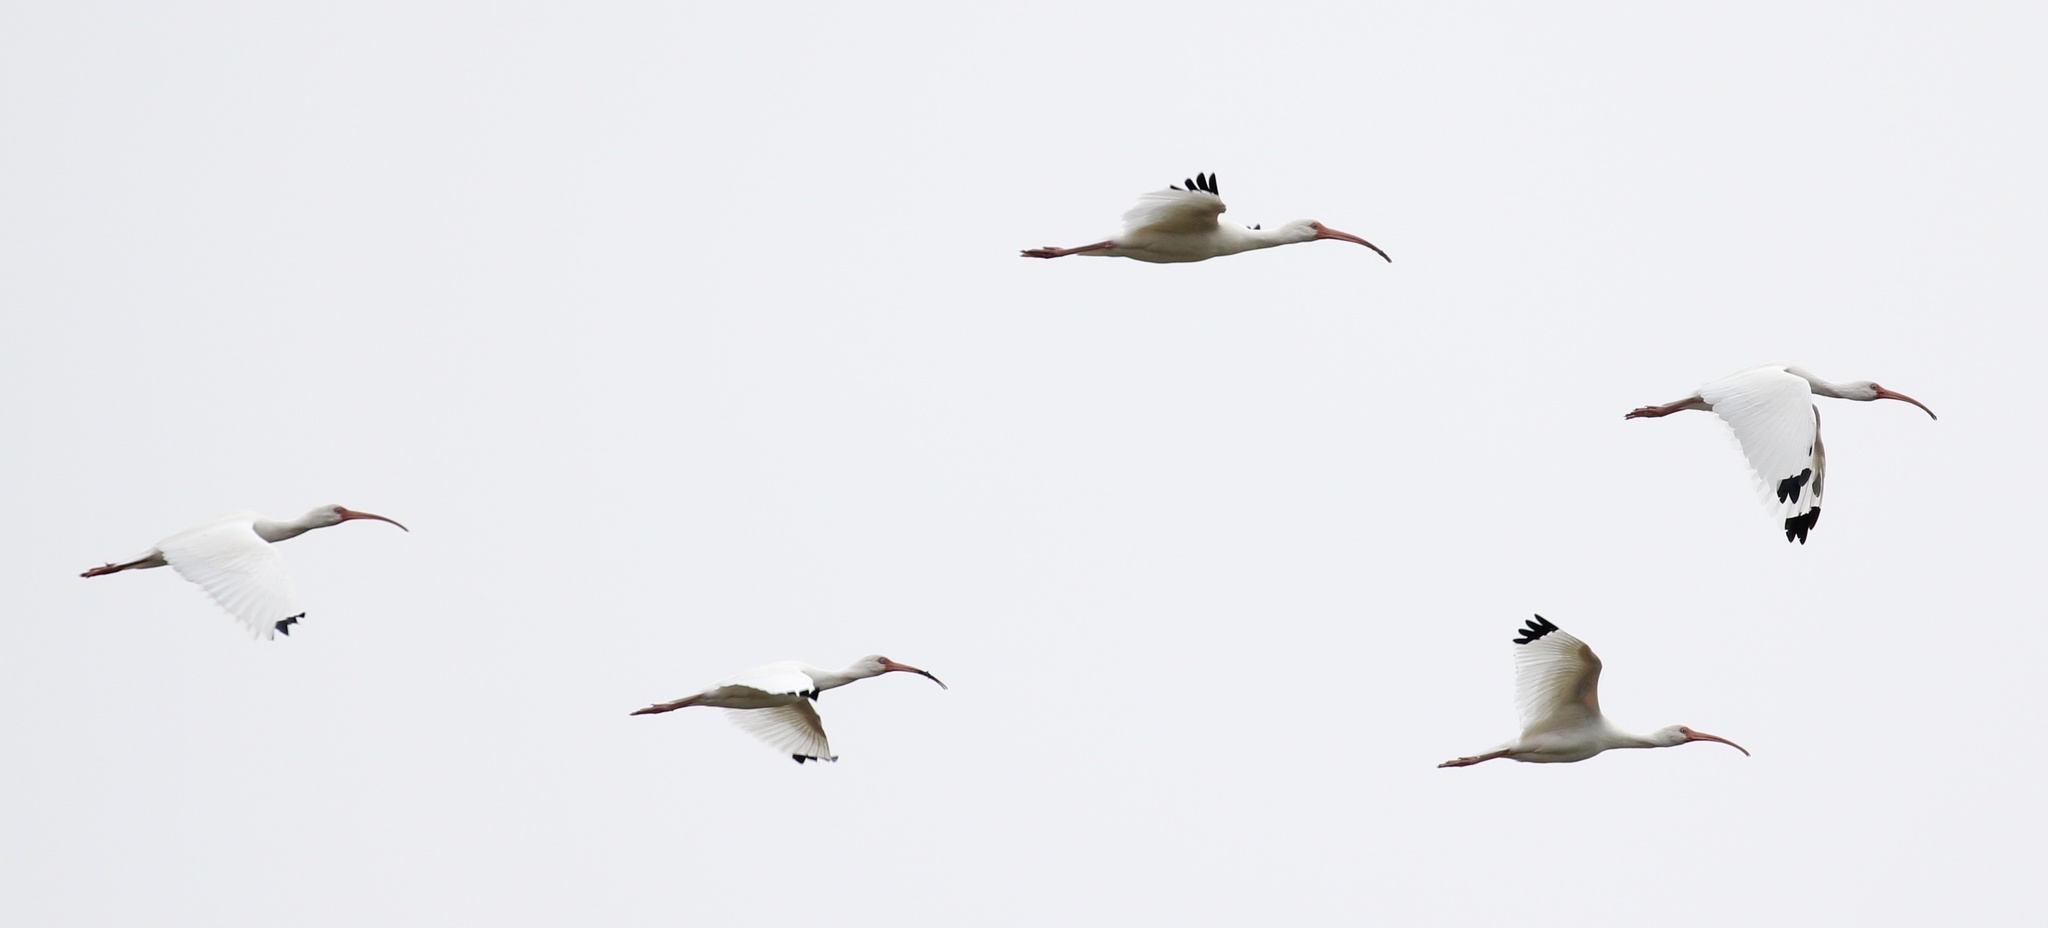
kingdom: Animalia
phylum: Chordata
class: Aves
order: Pelecaniformes
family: Threskiornithidae
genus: Eudocimus
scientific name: Eudocimus albus
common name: White ibis
